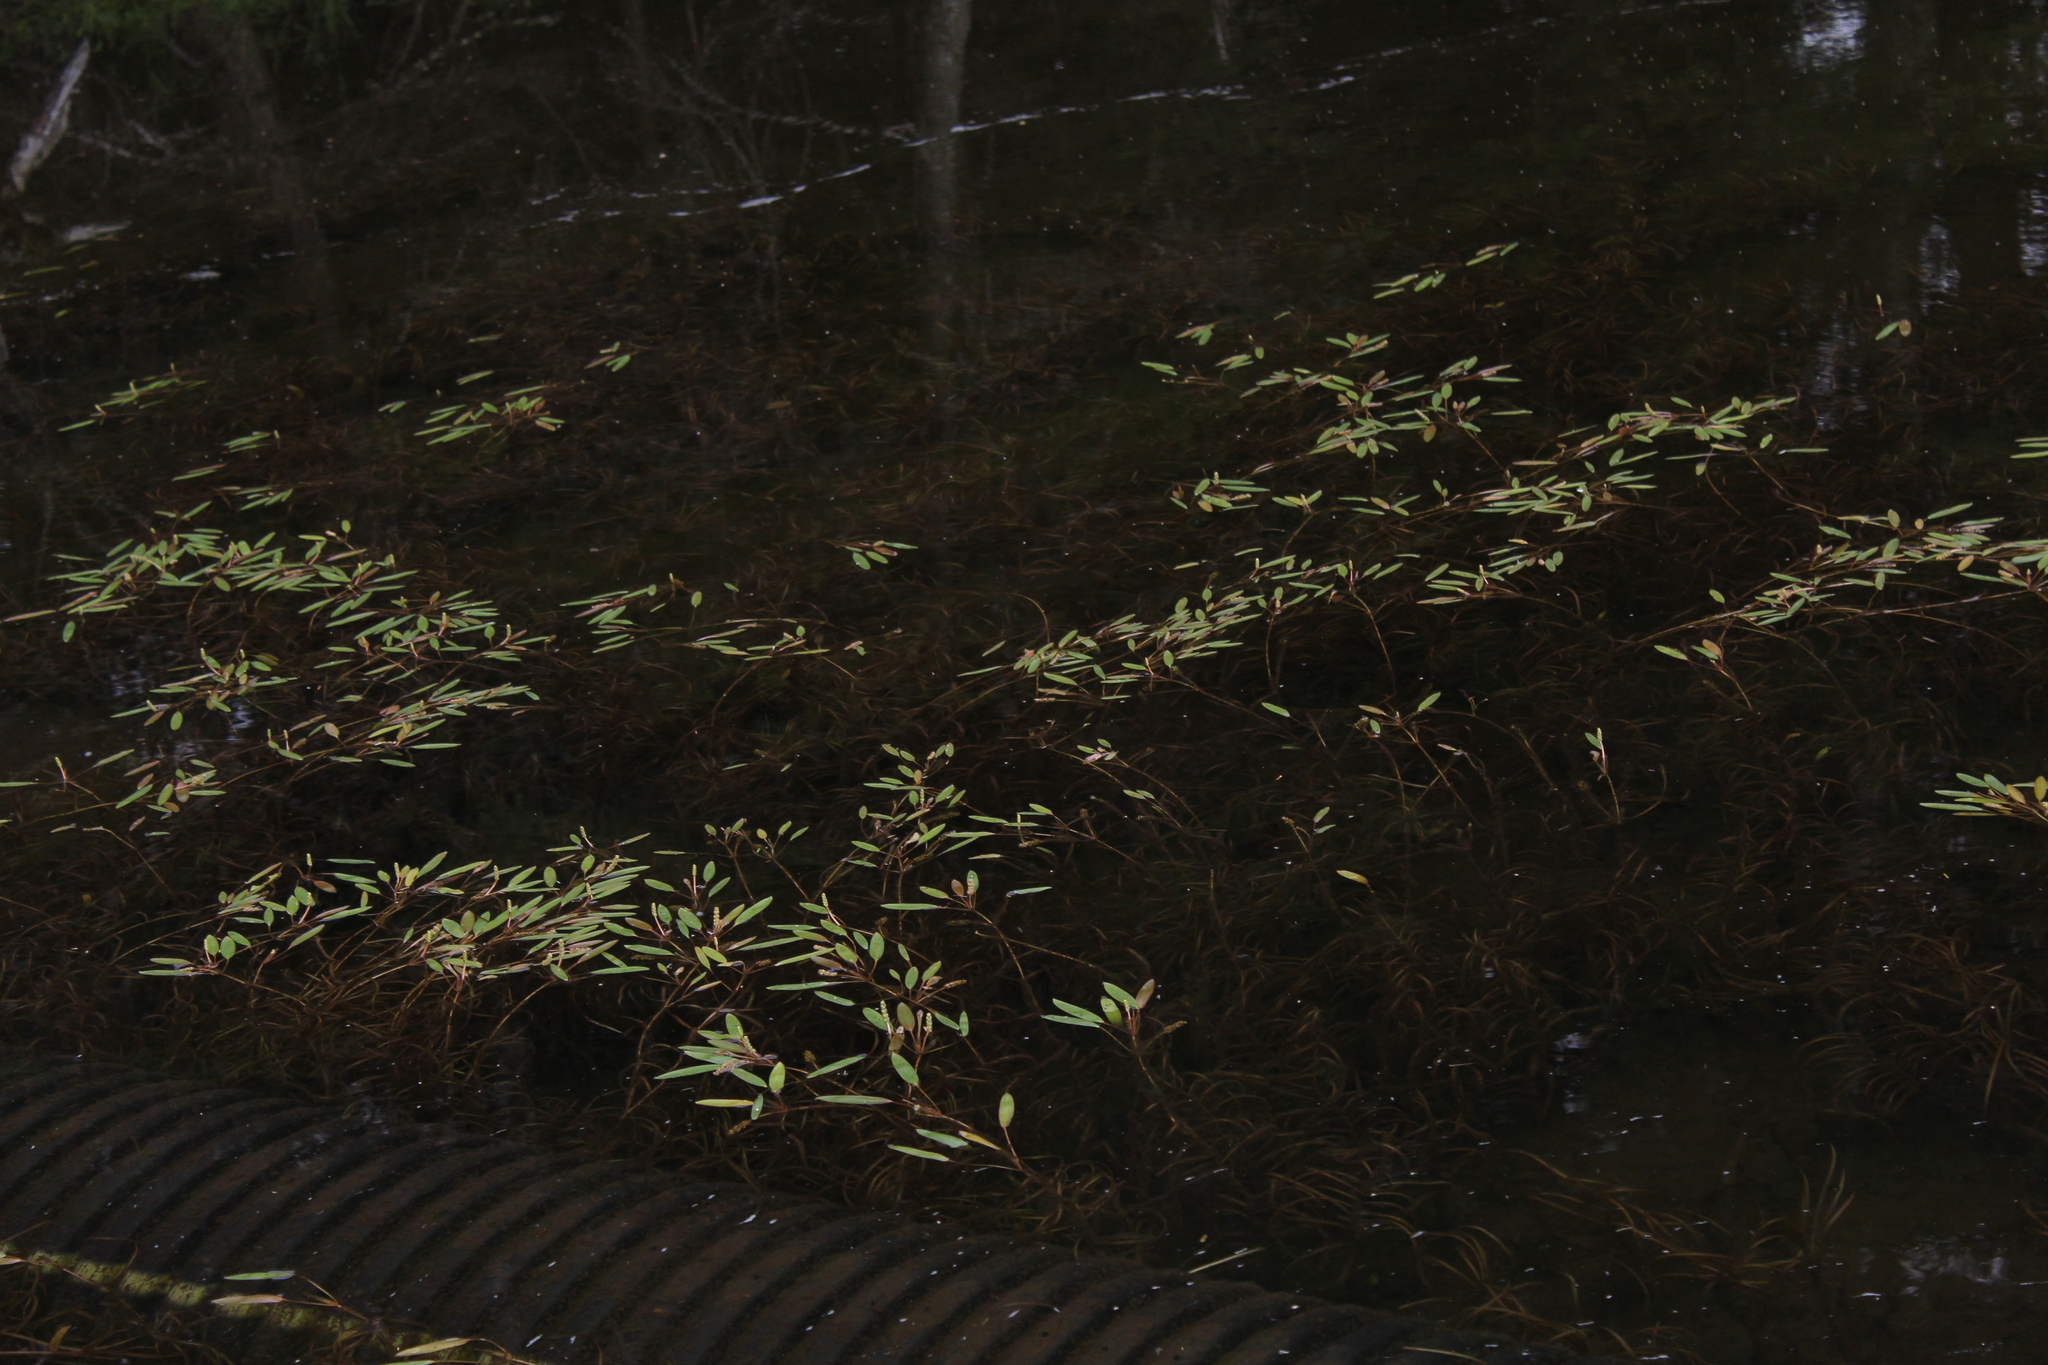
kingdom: Plantae
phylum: Tracheophyta
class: Liliopsida
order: Alismatales
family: Potamogetonaceae
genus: Potamogeton
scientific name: Potamogeton epihydrus
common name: American pondweed
